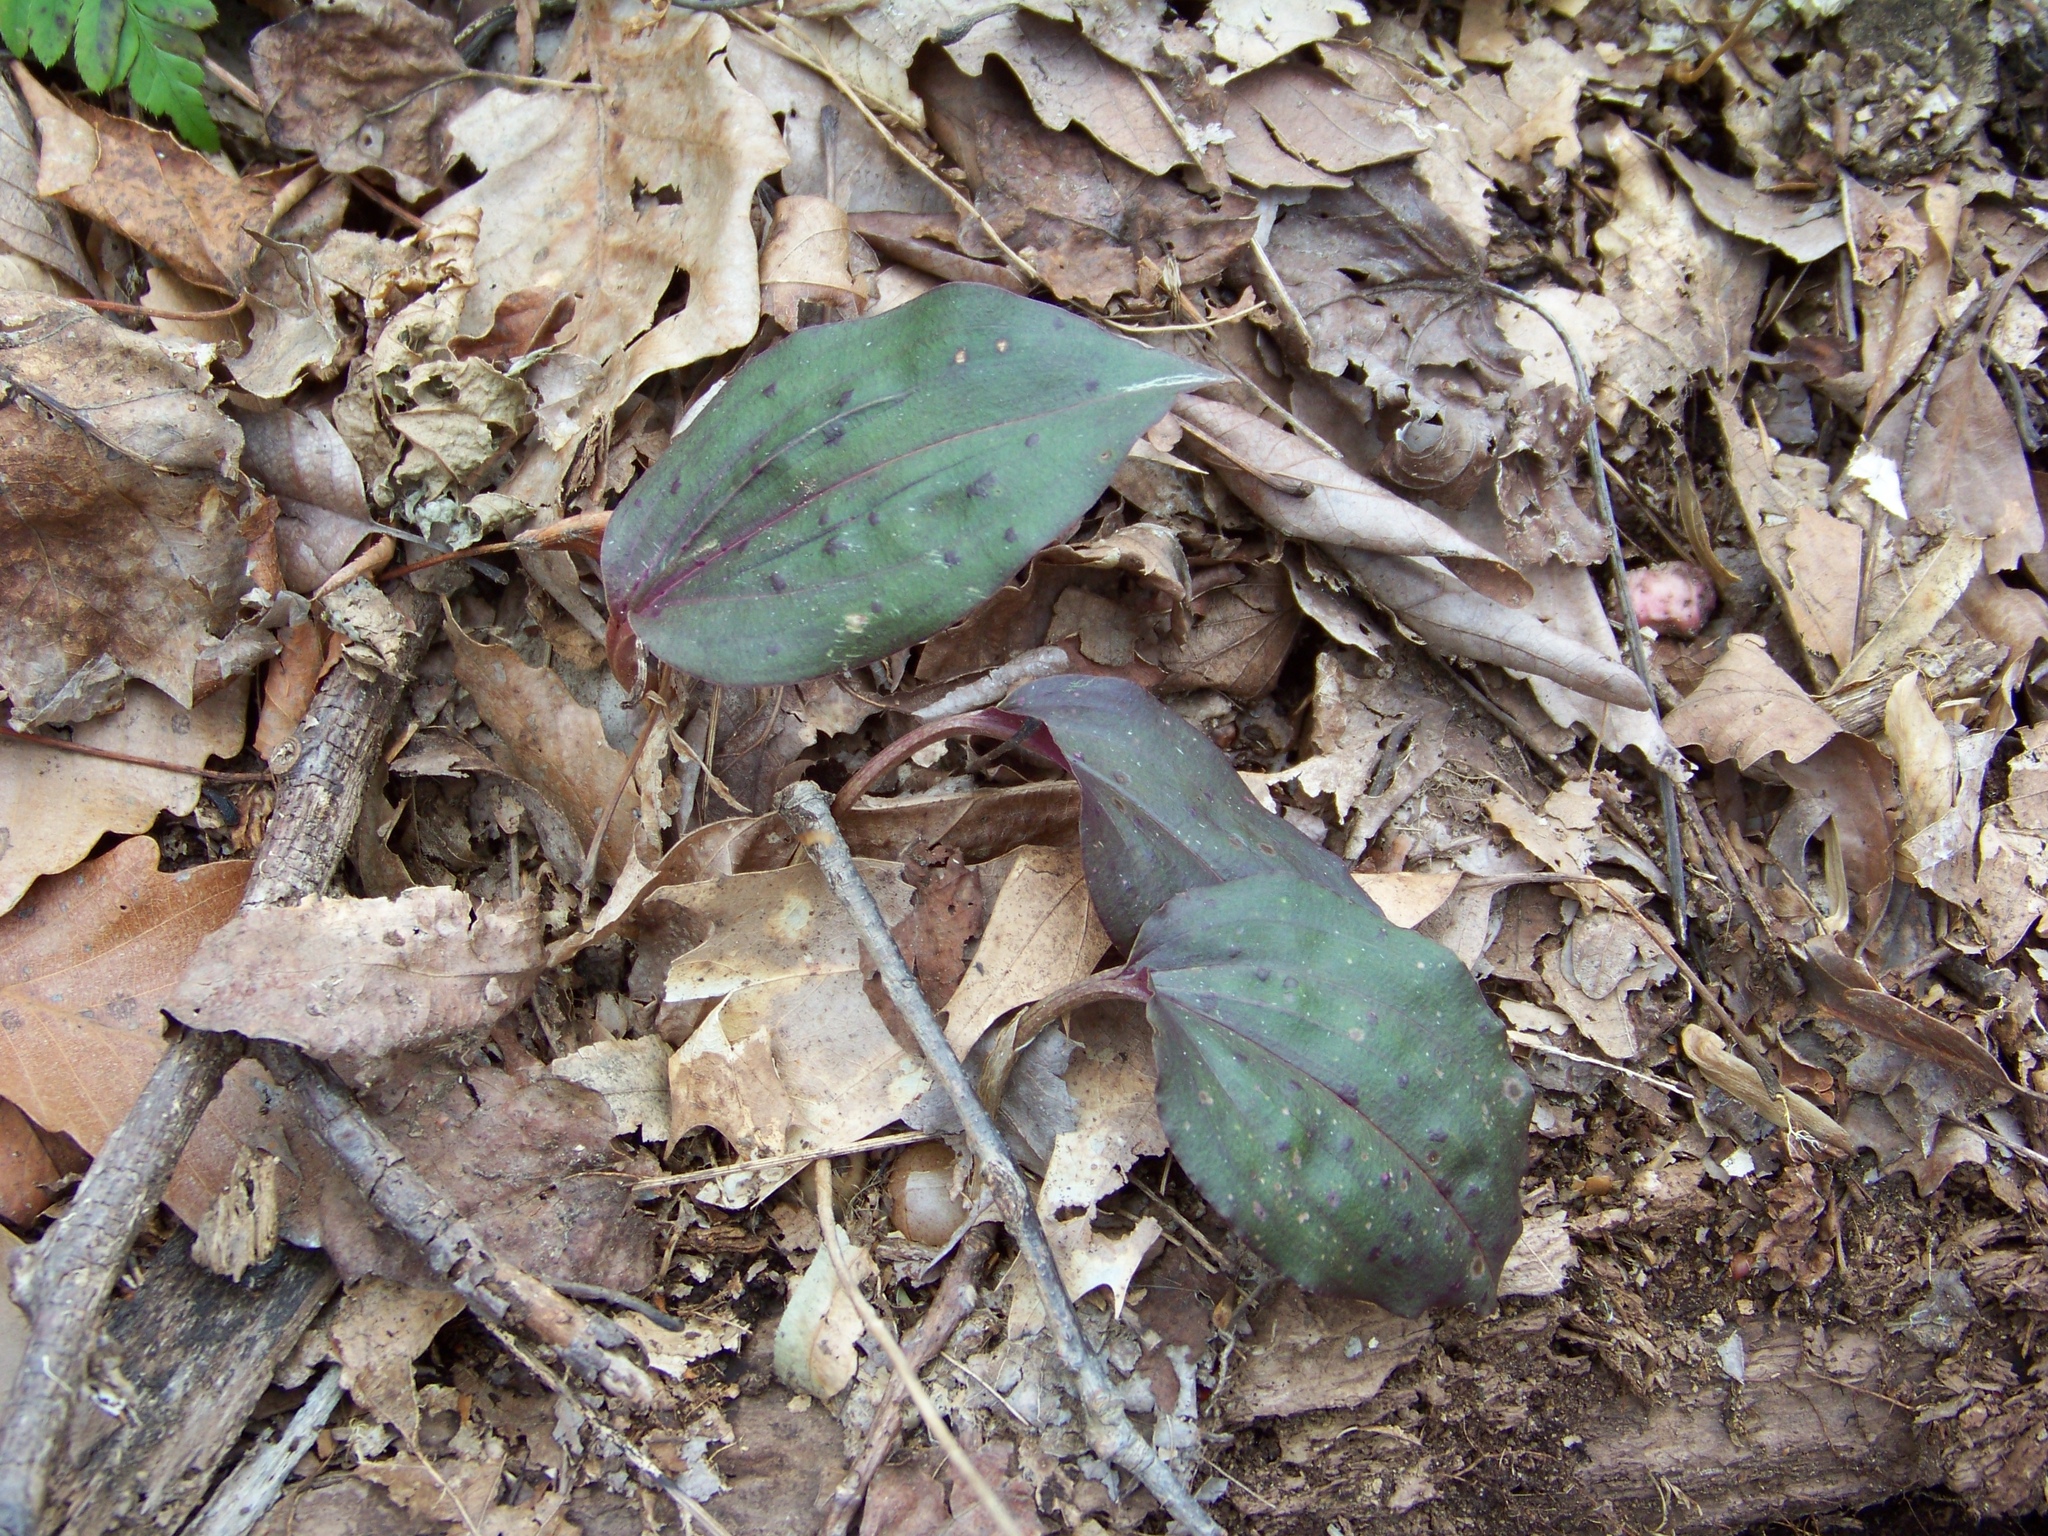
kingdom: Plantae
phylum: Tracheophyta
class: Liliopsida
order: Asparagales
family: Orchidaceae
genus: Tipularia
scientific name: Tipularia discolor
